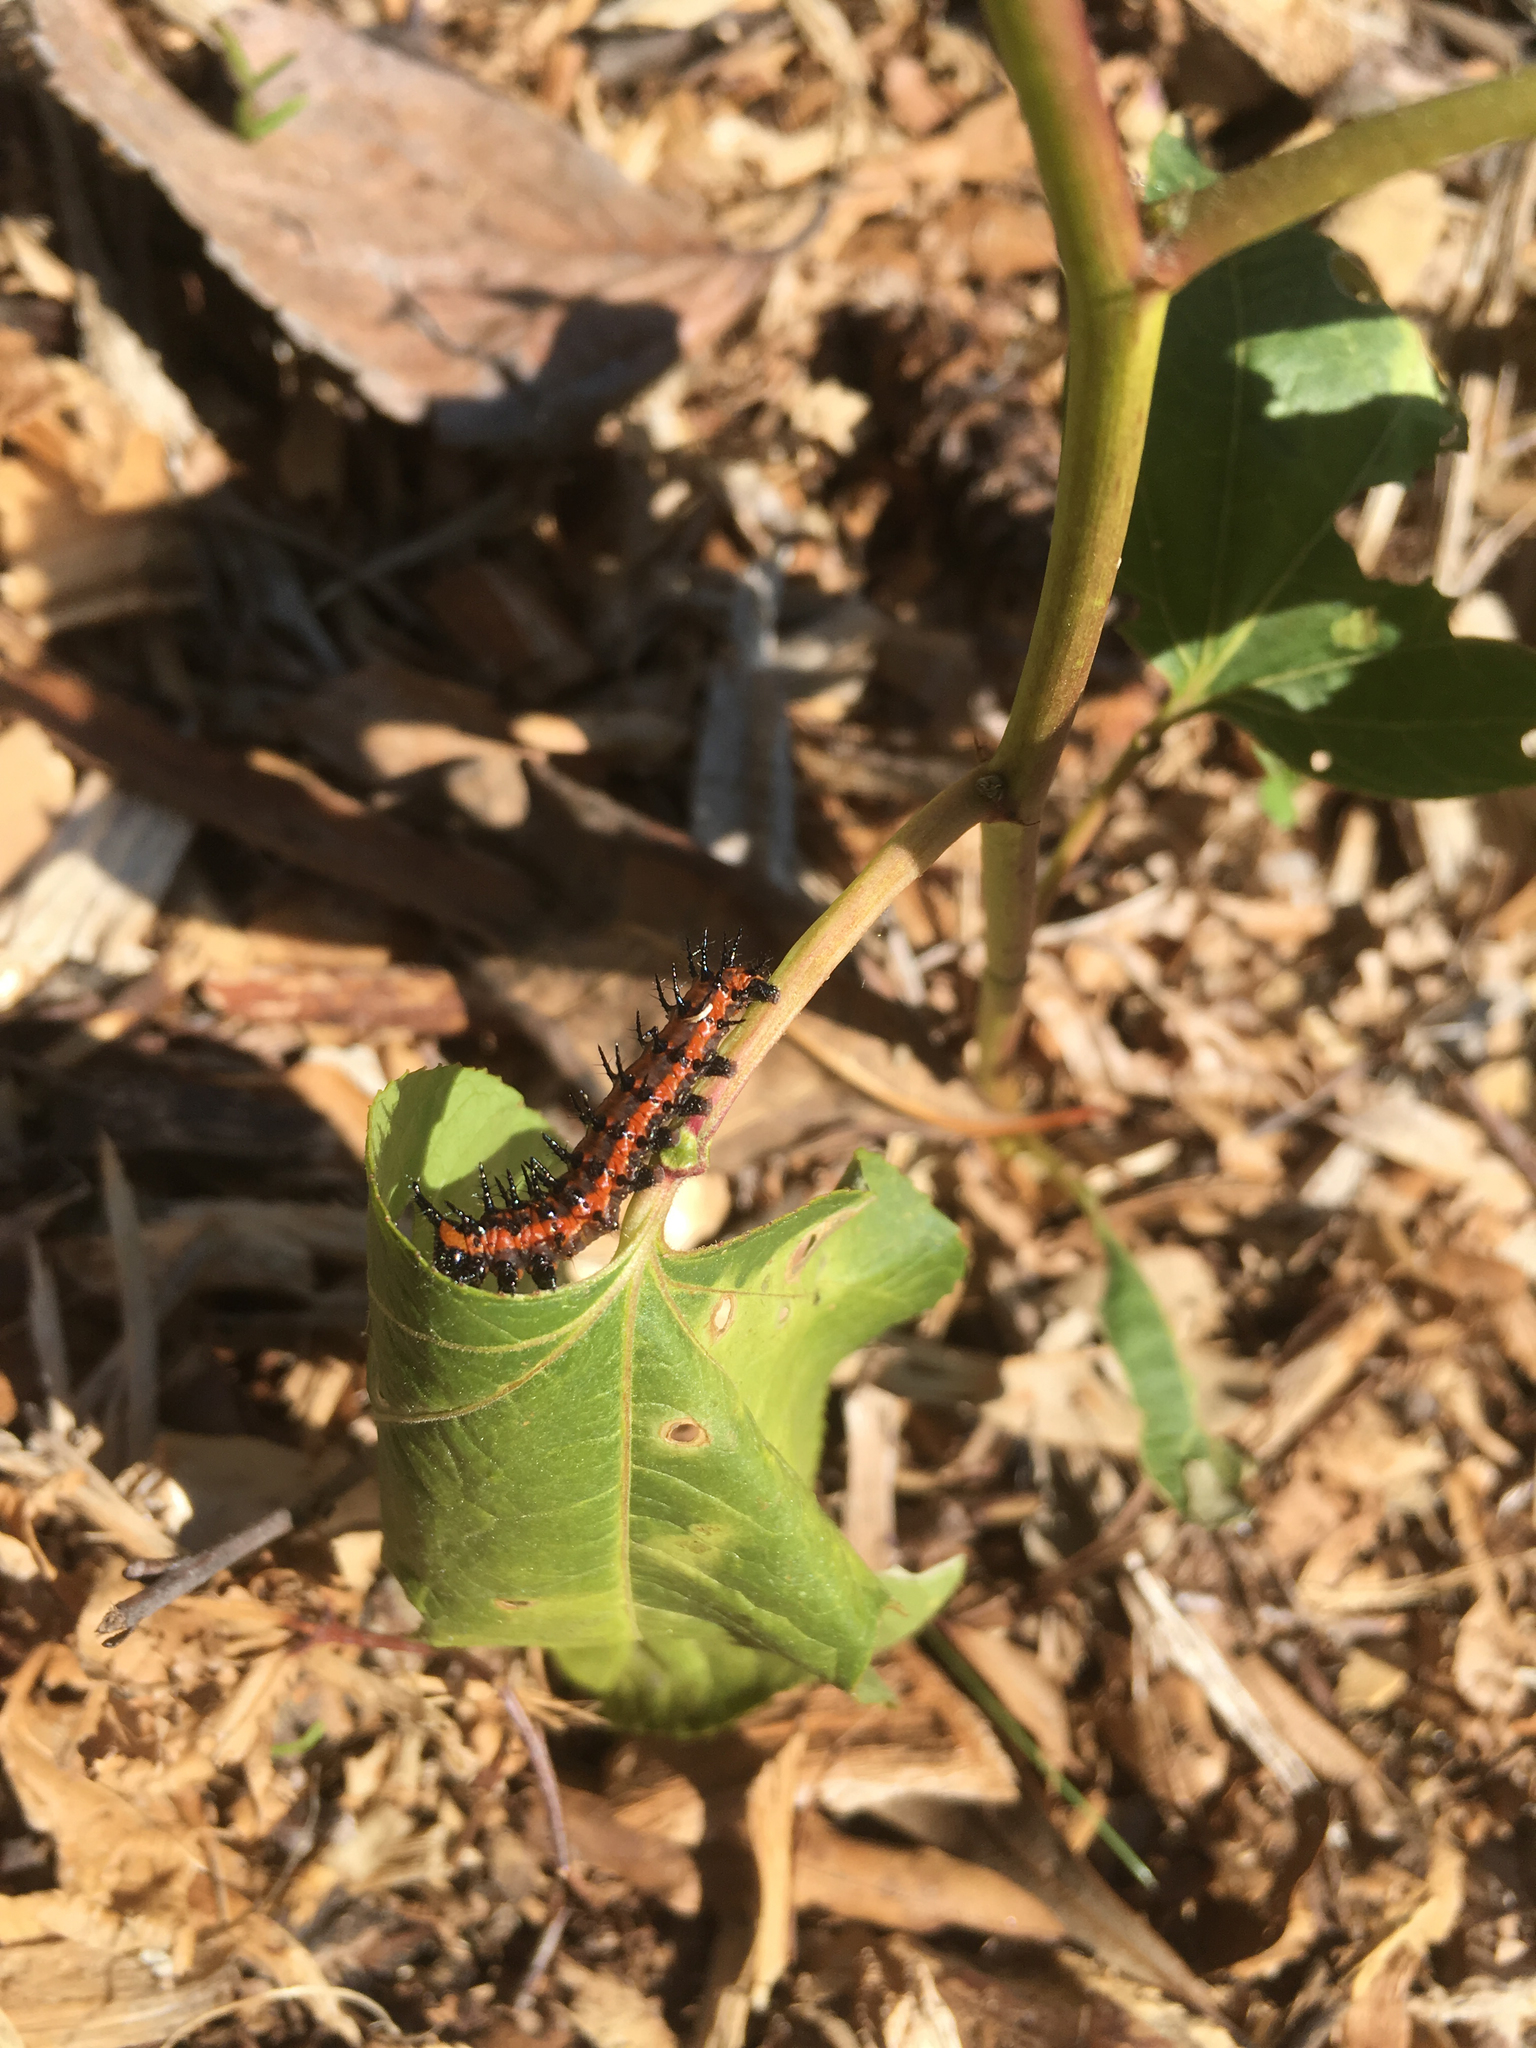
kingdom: Plantae
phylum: Tracheophyta
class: Magnoliopsida
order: Malpighiales
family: Passifloraceae
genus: Passiflora
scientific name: Passiflora incarnata
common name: Apricot-vine
